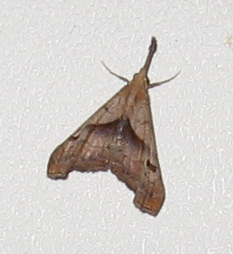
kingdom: Animalia
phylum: Arthropoda
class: Insecta
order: Lepidoptera
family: Erebidae
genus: Palthis
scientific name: Palthis angulalis
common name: Dark-spotted palthis moth
